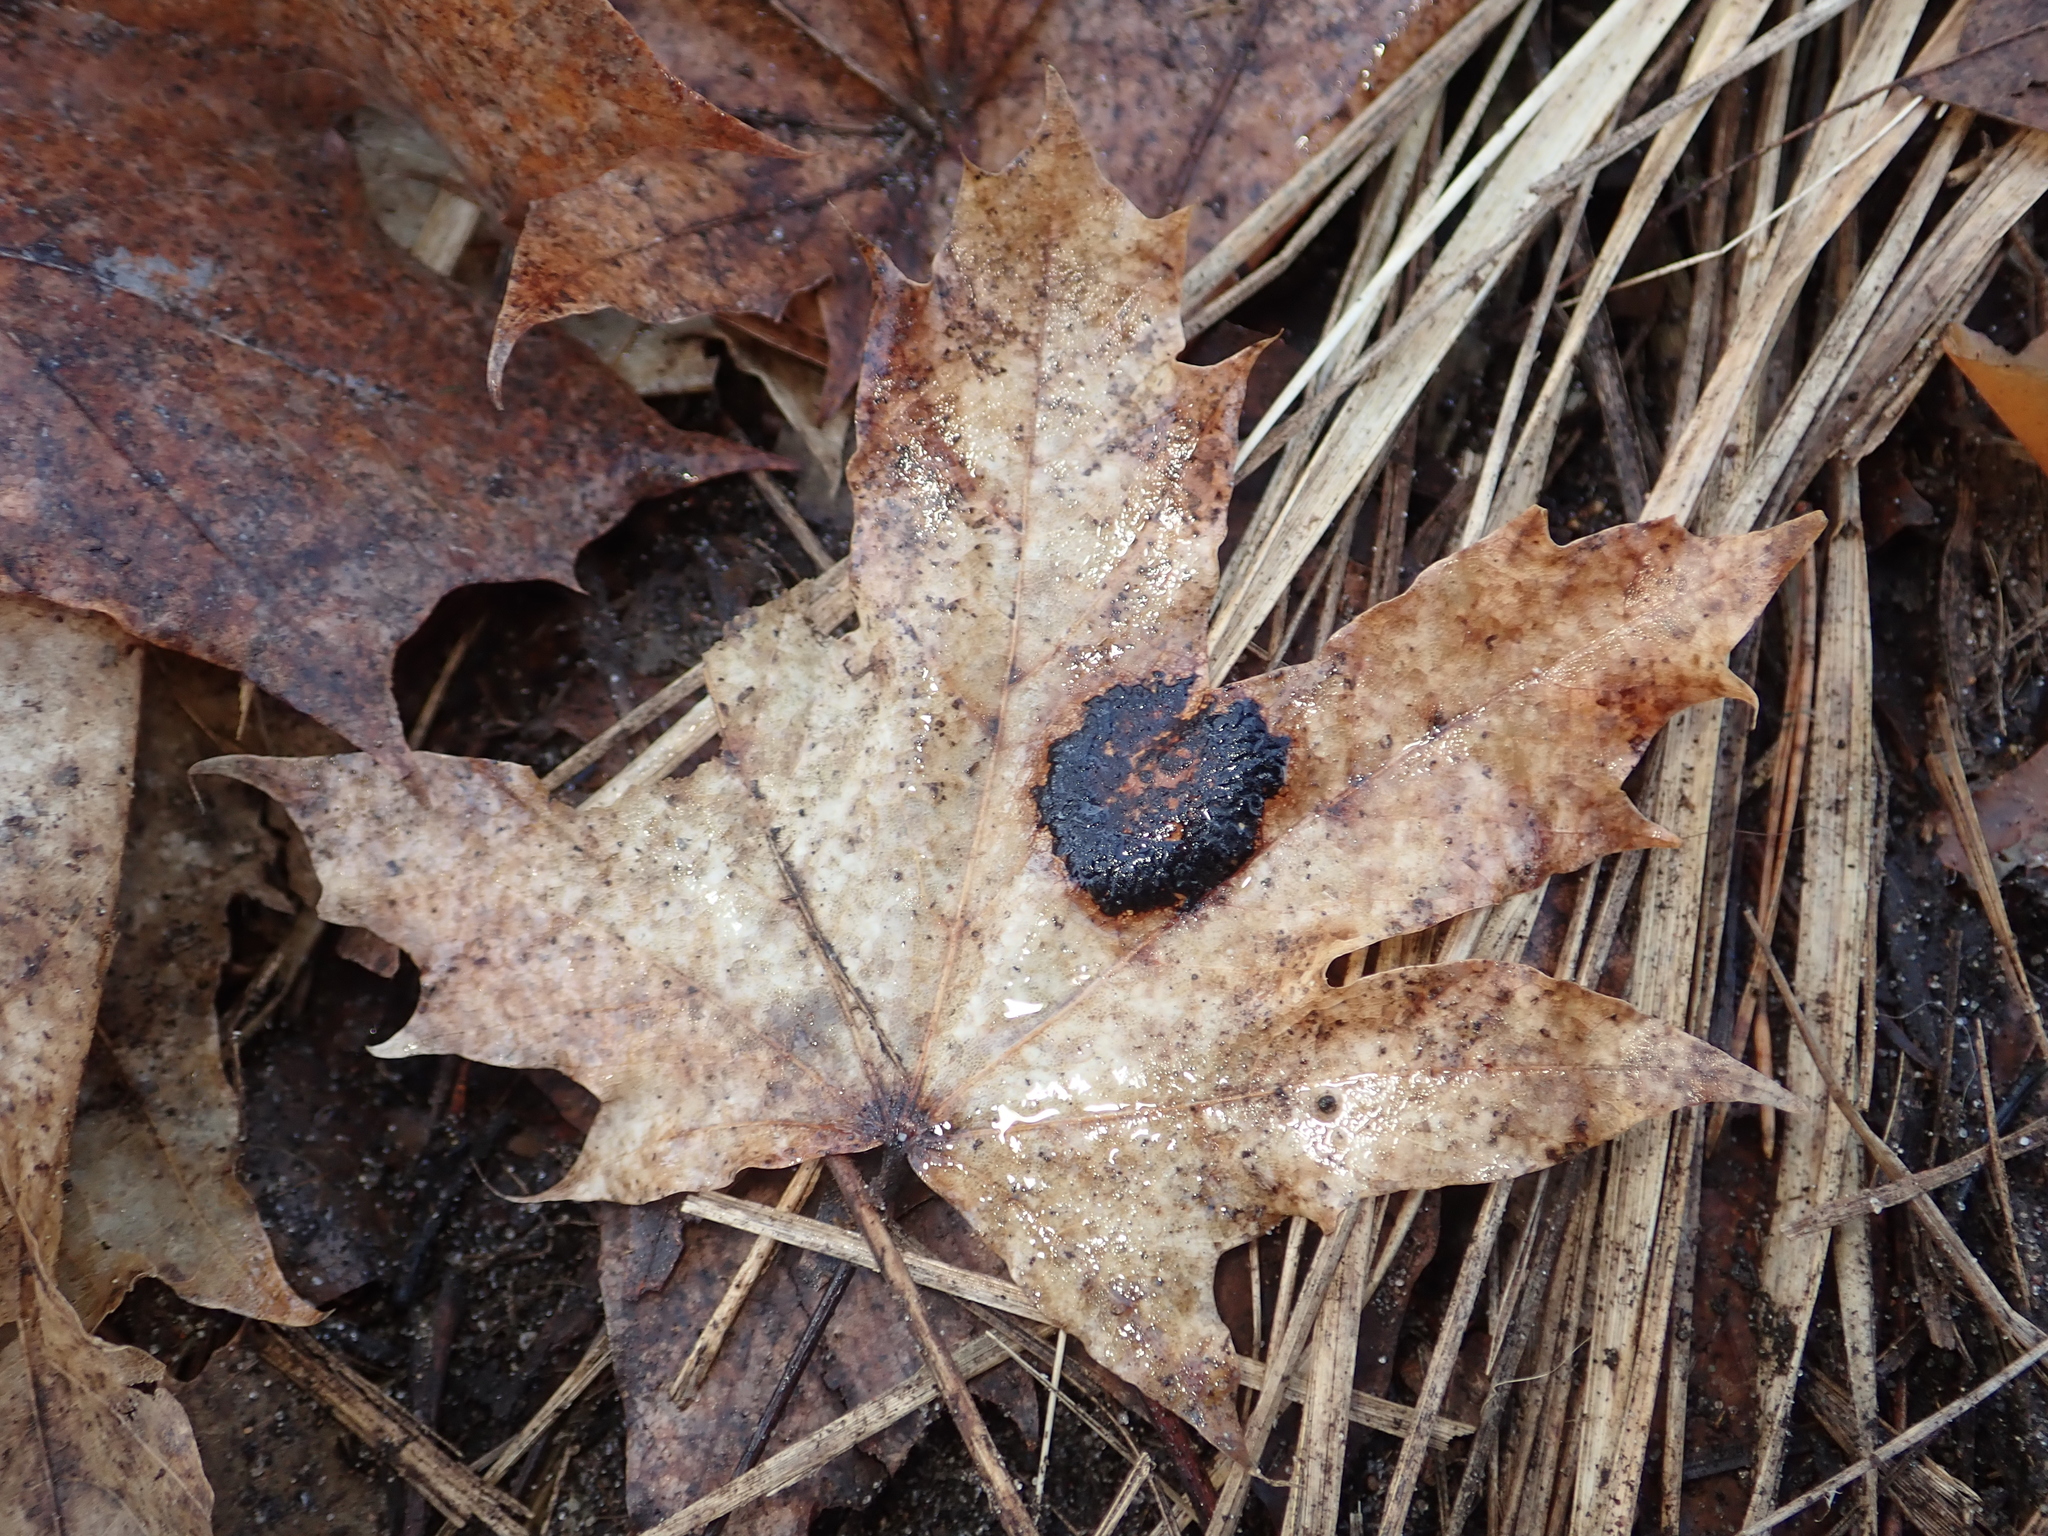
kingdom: Plantae
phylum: Tracheophyta
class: Magnoliopsida
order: Sapindales
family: Sapindaceae
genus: Acer
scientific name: Acer platanoides
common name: Norway maple
